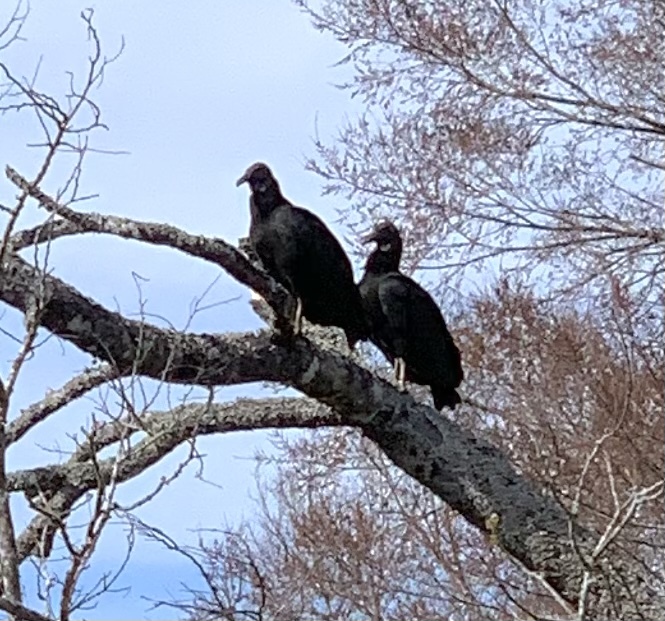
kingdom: Animalia
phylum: Chordata
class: Aves
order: Accipitriformes
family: Cathartidae
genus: Coragyps
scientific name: Coragyps atratus
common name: Black vulture
